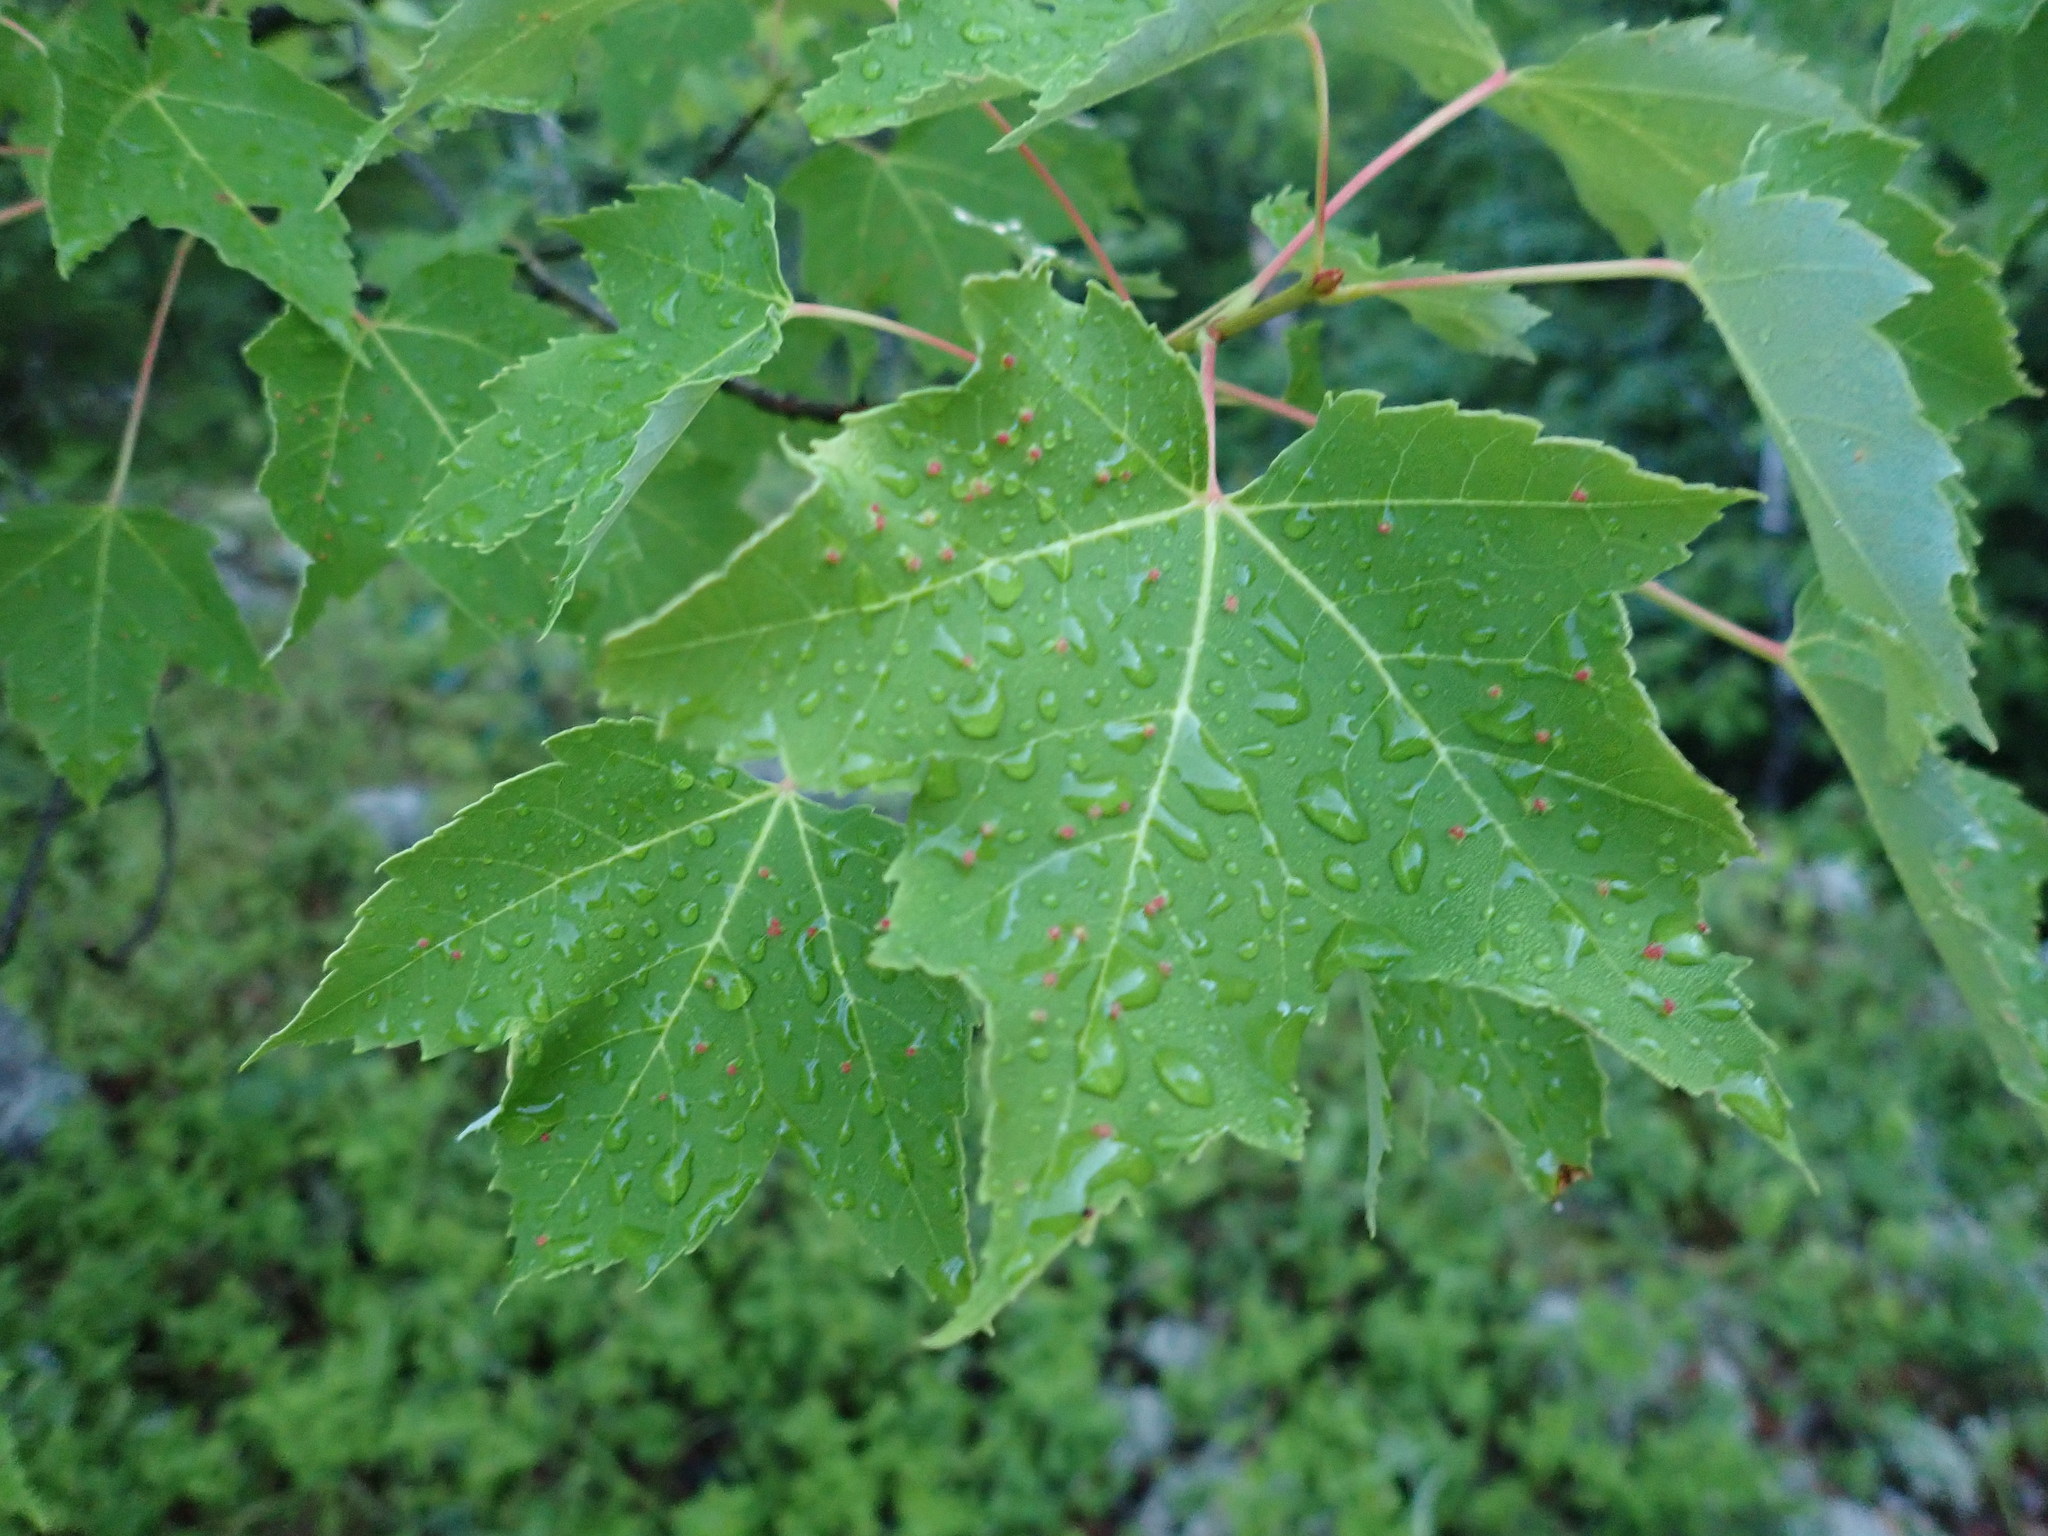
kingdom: Plantae
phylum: Tracheophyta
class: Magnoliopsida
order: Sapindales
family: Sapindaceae
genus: Acer
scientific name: Acer rubrum
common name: Red maple
